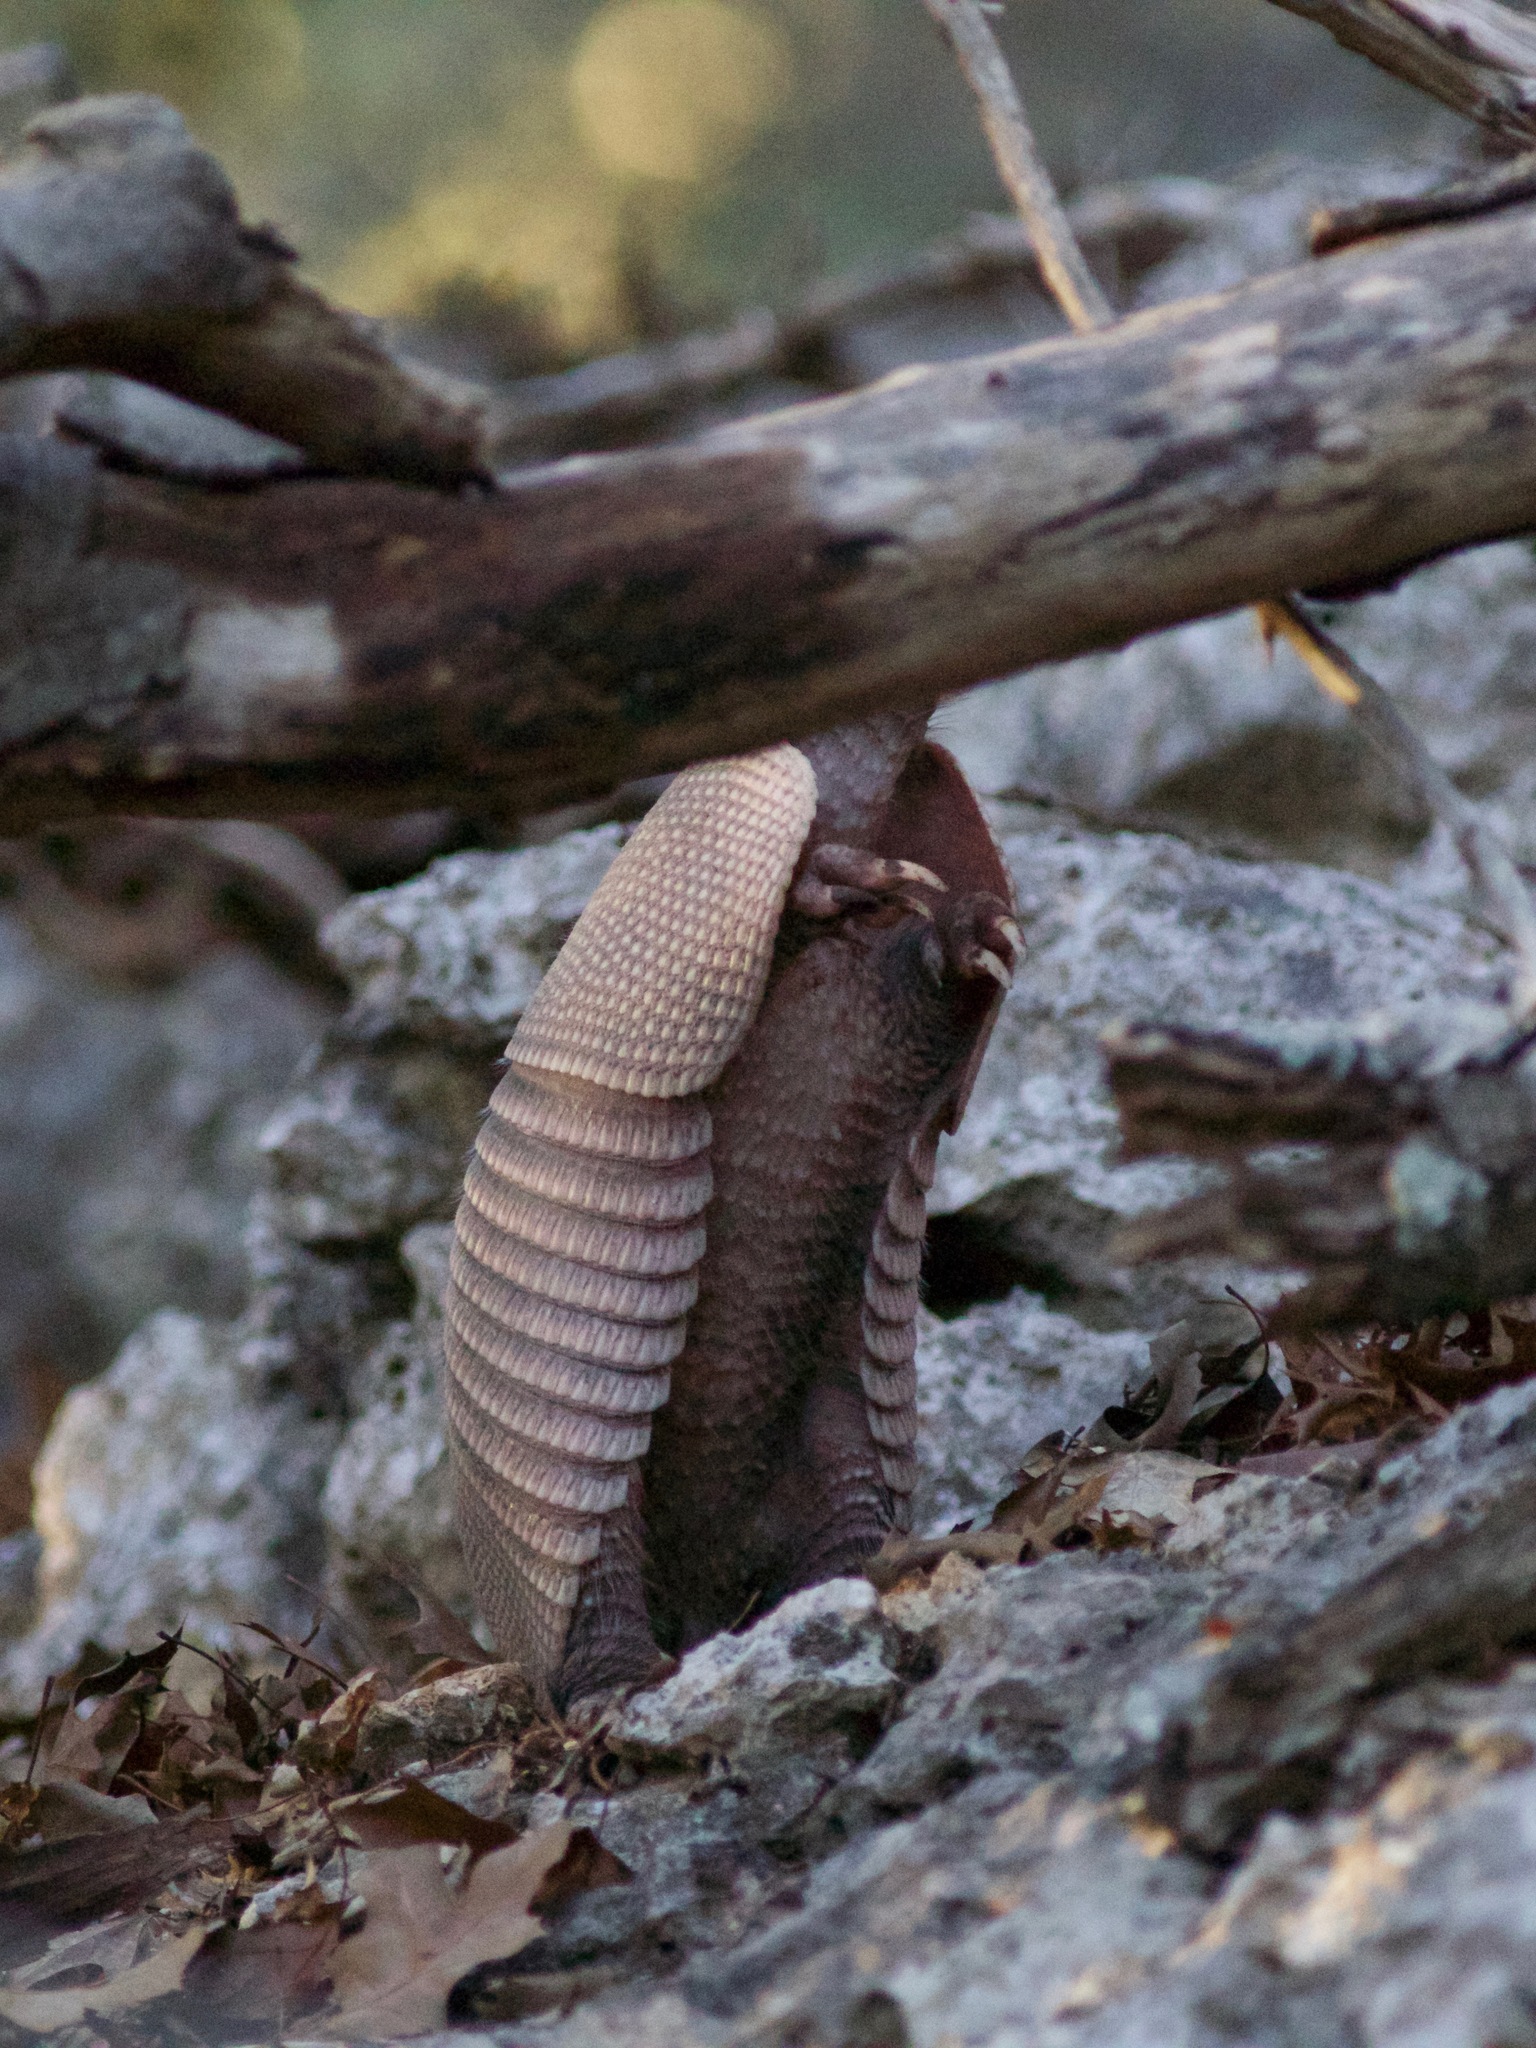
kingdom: Animalia
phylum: Chordata
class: Mammalia
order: Cingulata
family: Dasypodidae
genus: Dasypus
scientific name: Dasypus novemcinctus
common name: Nine-banded armadillo
